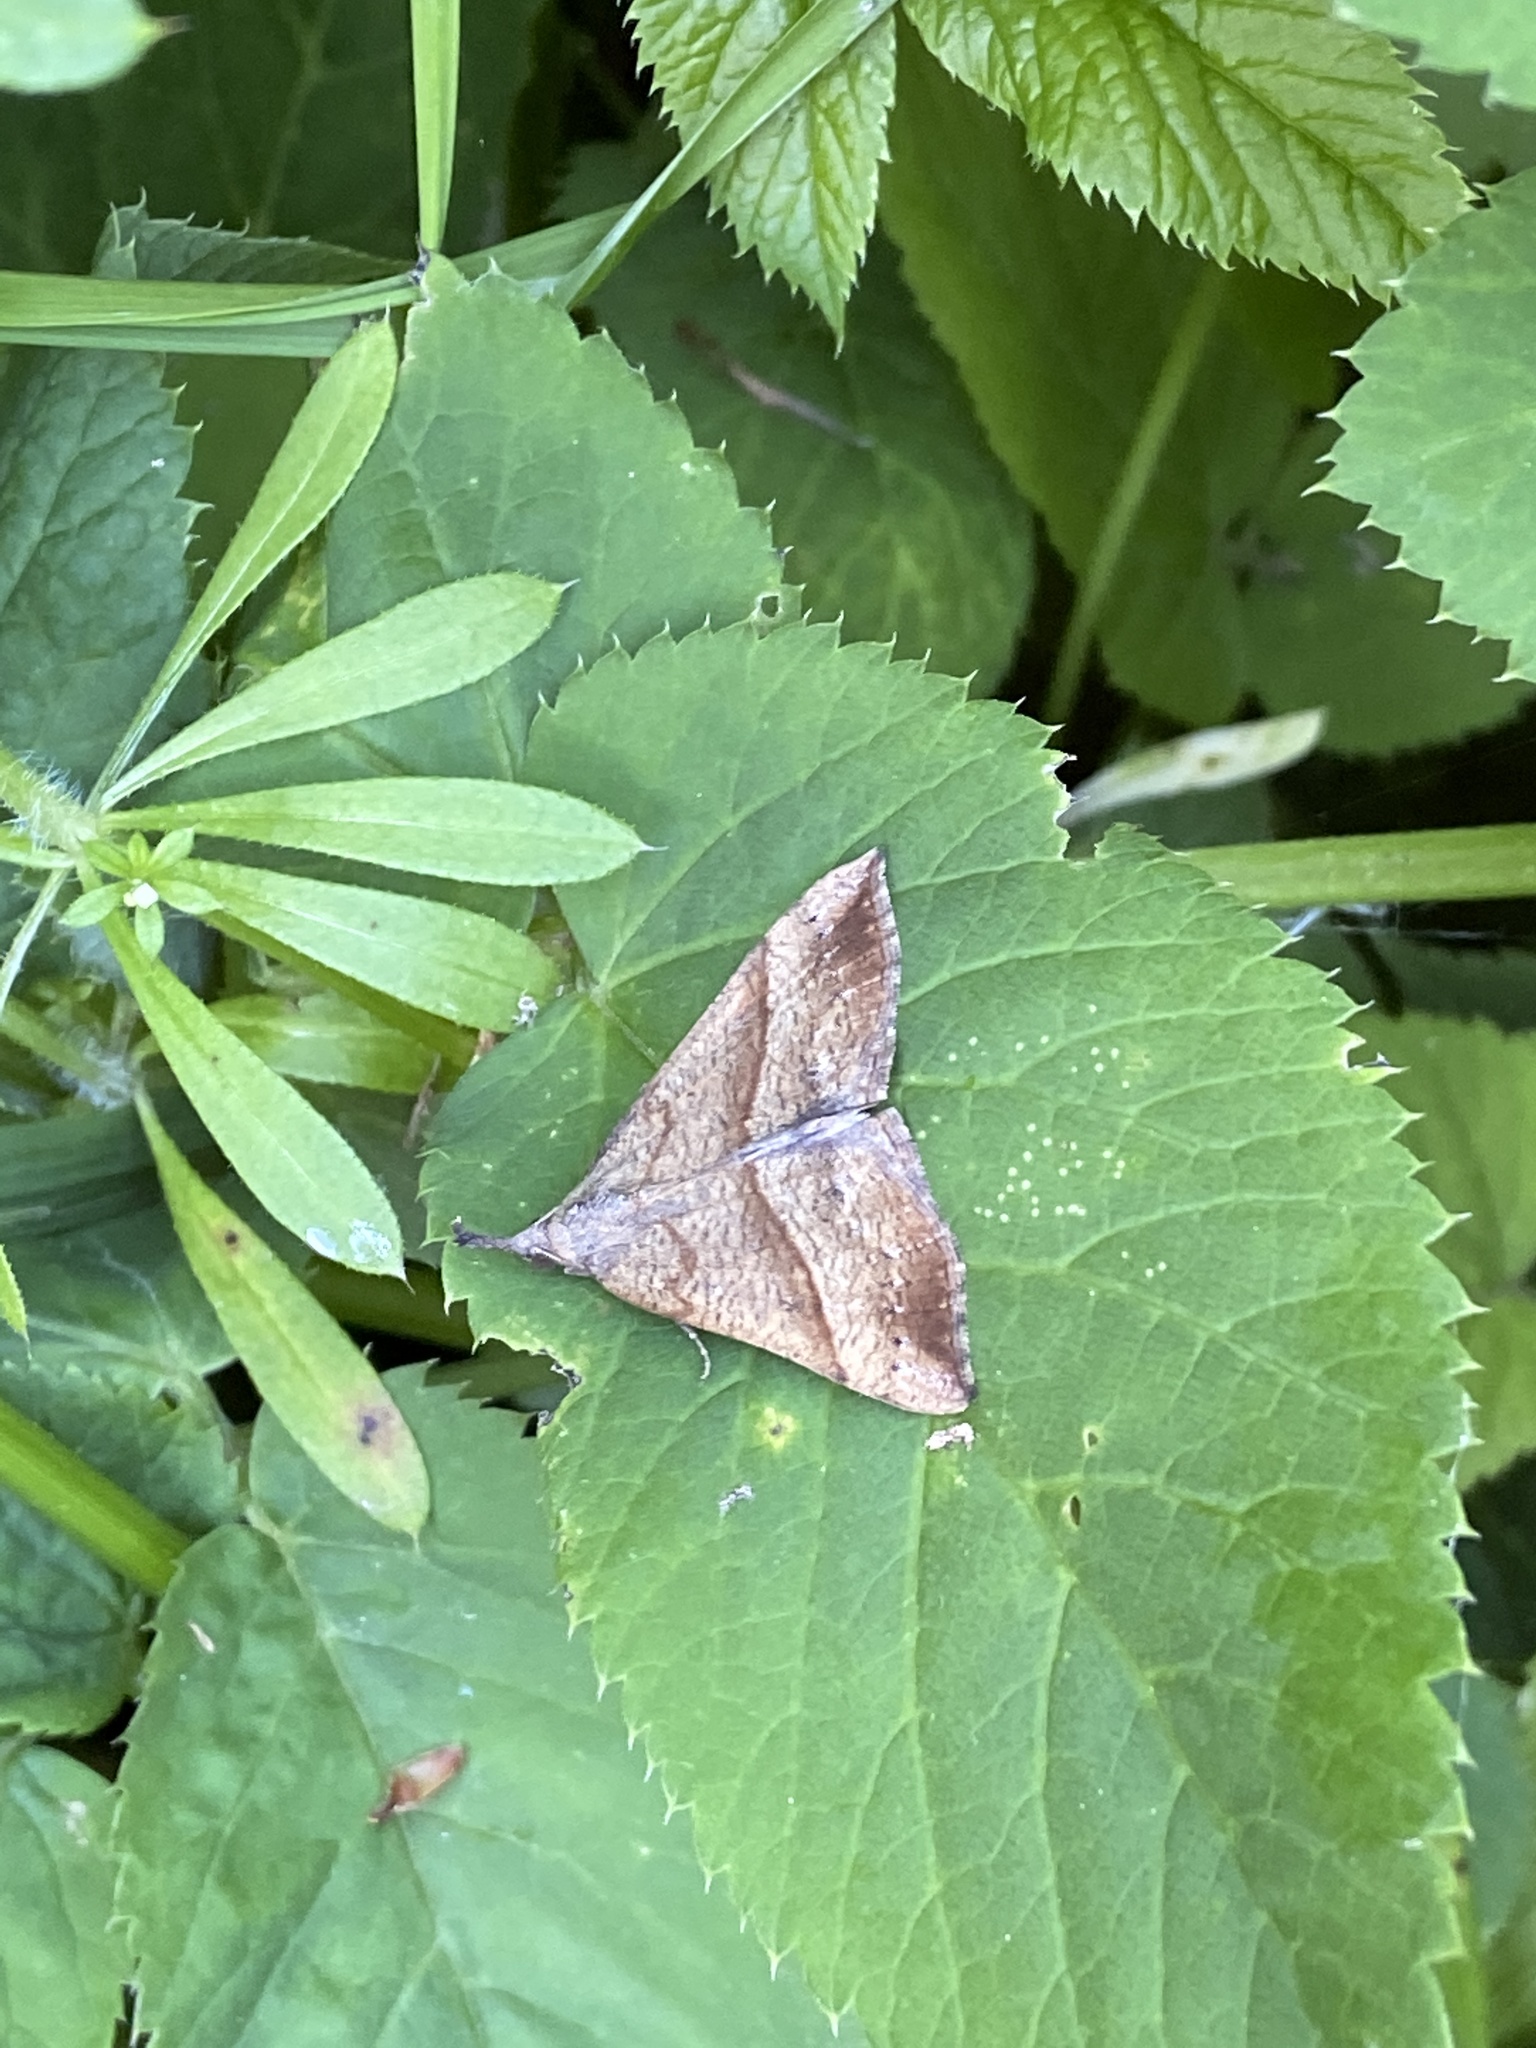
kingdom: Animalia
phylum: Arthropoda
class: Insecta
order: Lepidoptera
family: Erebidae
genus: Hypena
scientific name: Hypena proboscidalis
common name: Snout
